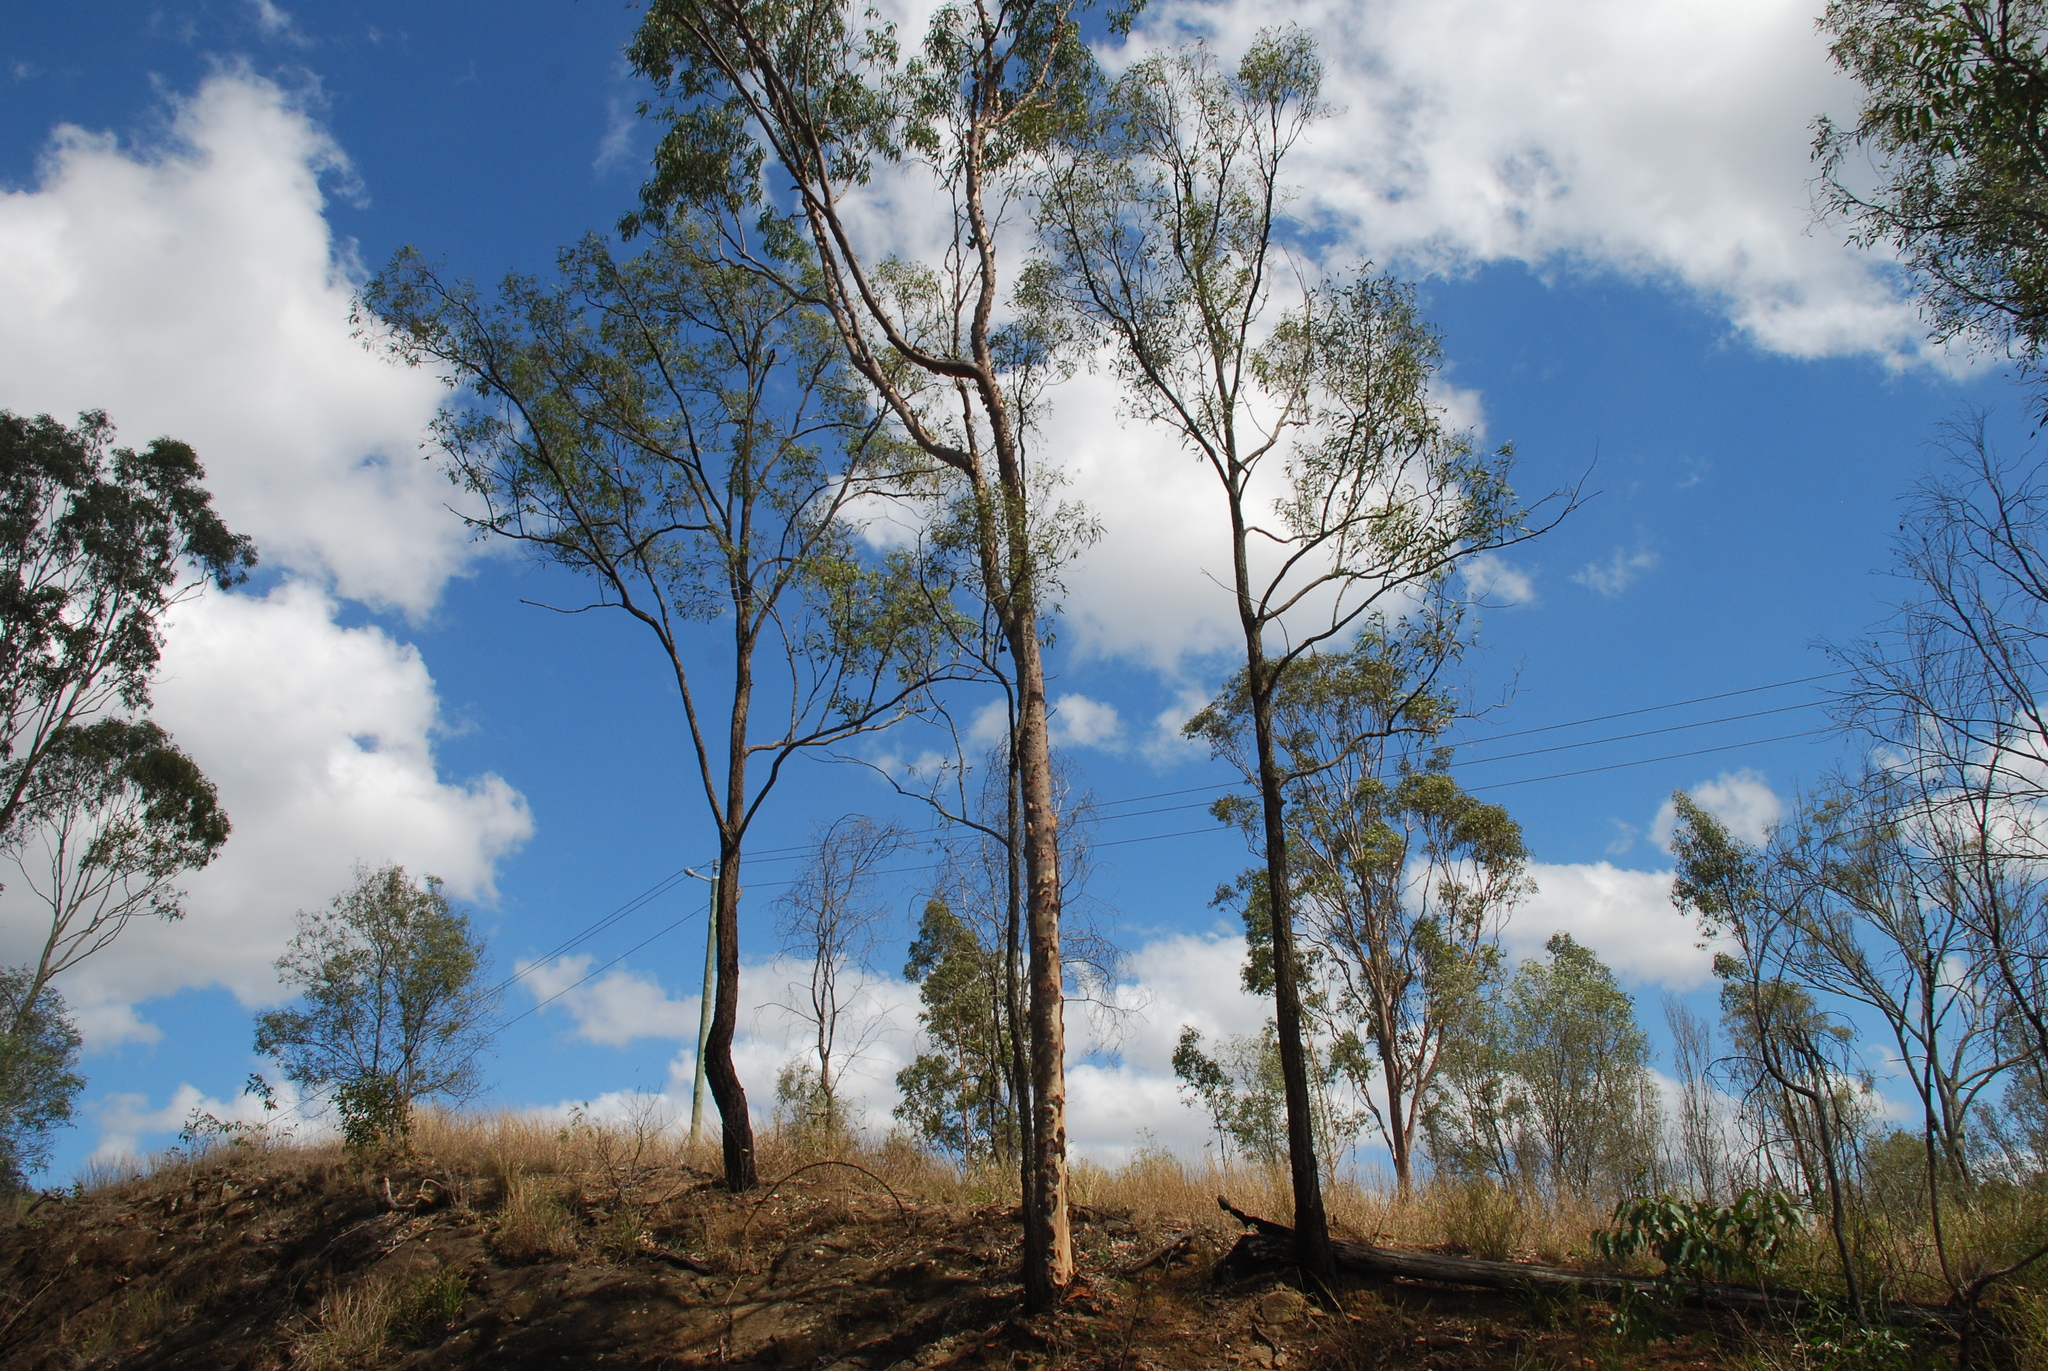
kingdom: Plantae
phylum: Tracheophyta
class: Magnoliopsida
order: Myrtales
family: Myrtaceae
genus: Corymbia
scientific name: Corymbia citriodora
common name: Lemonscented gum
